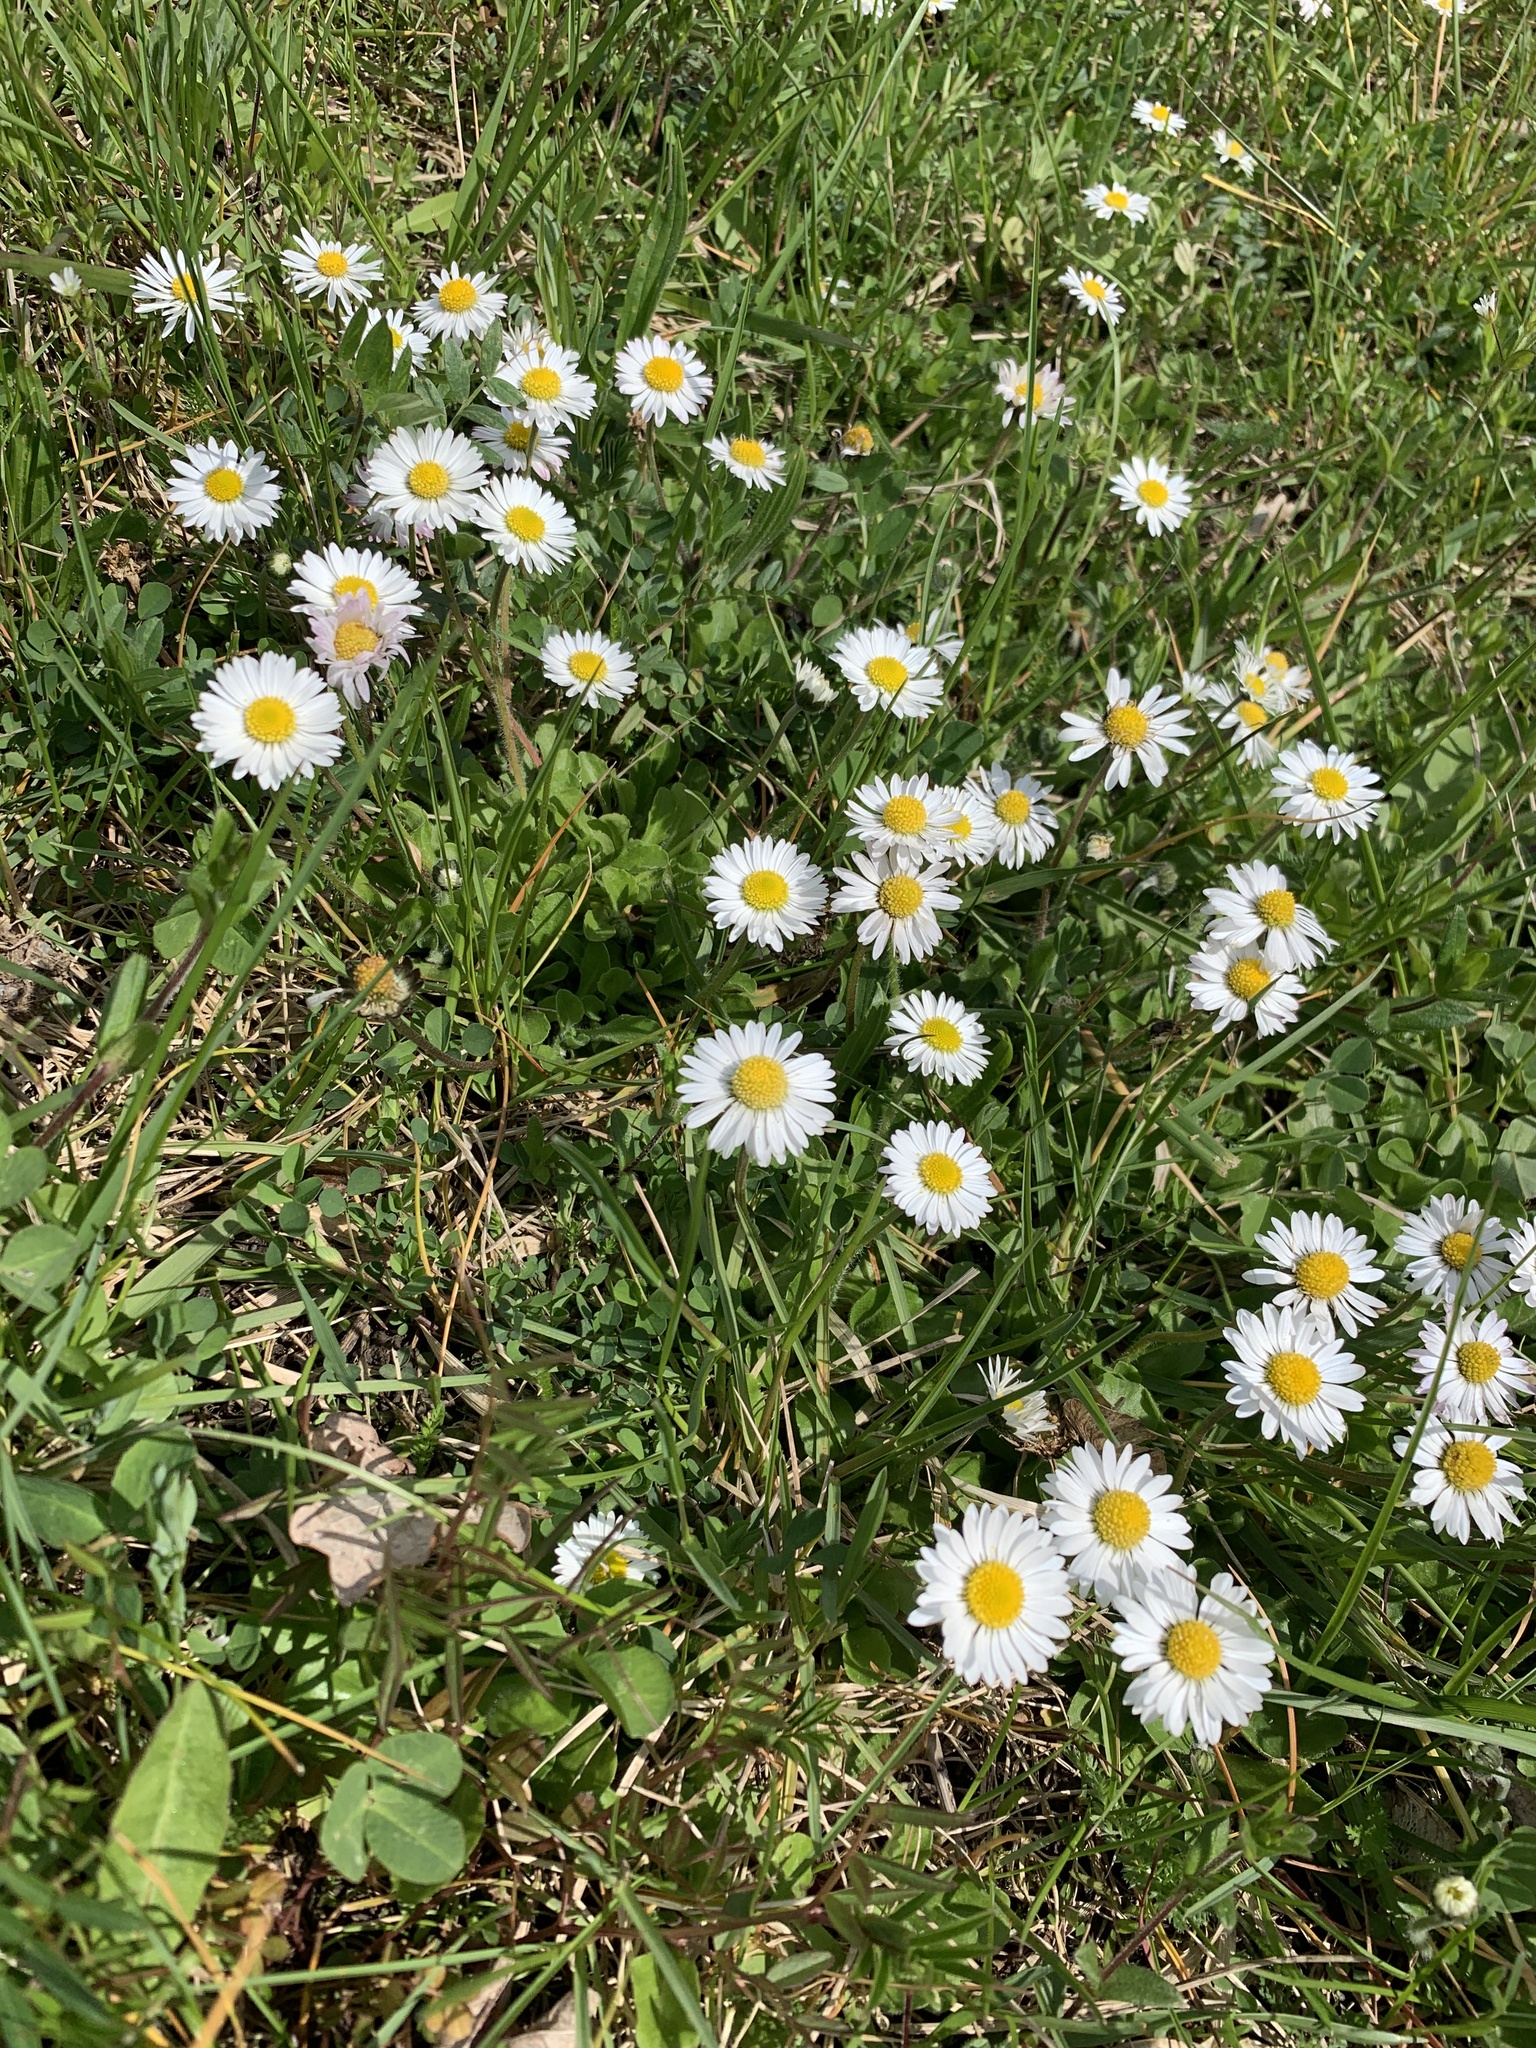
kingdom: Plantae
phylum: Tracheophyta
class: Magnoliopsida
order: Asterales
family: Asteraceae
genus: Bellis
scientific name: Bellis perennis
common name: Lawndaisy
